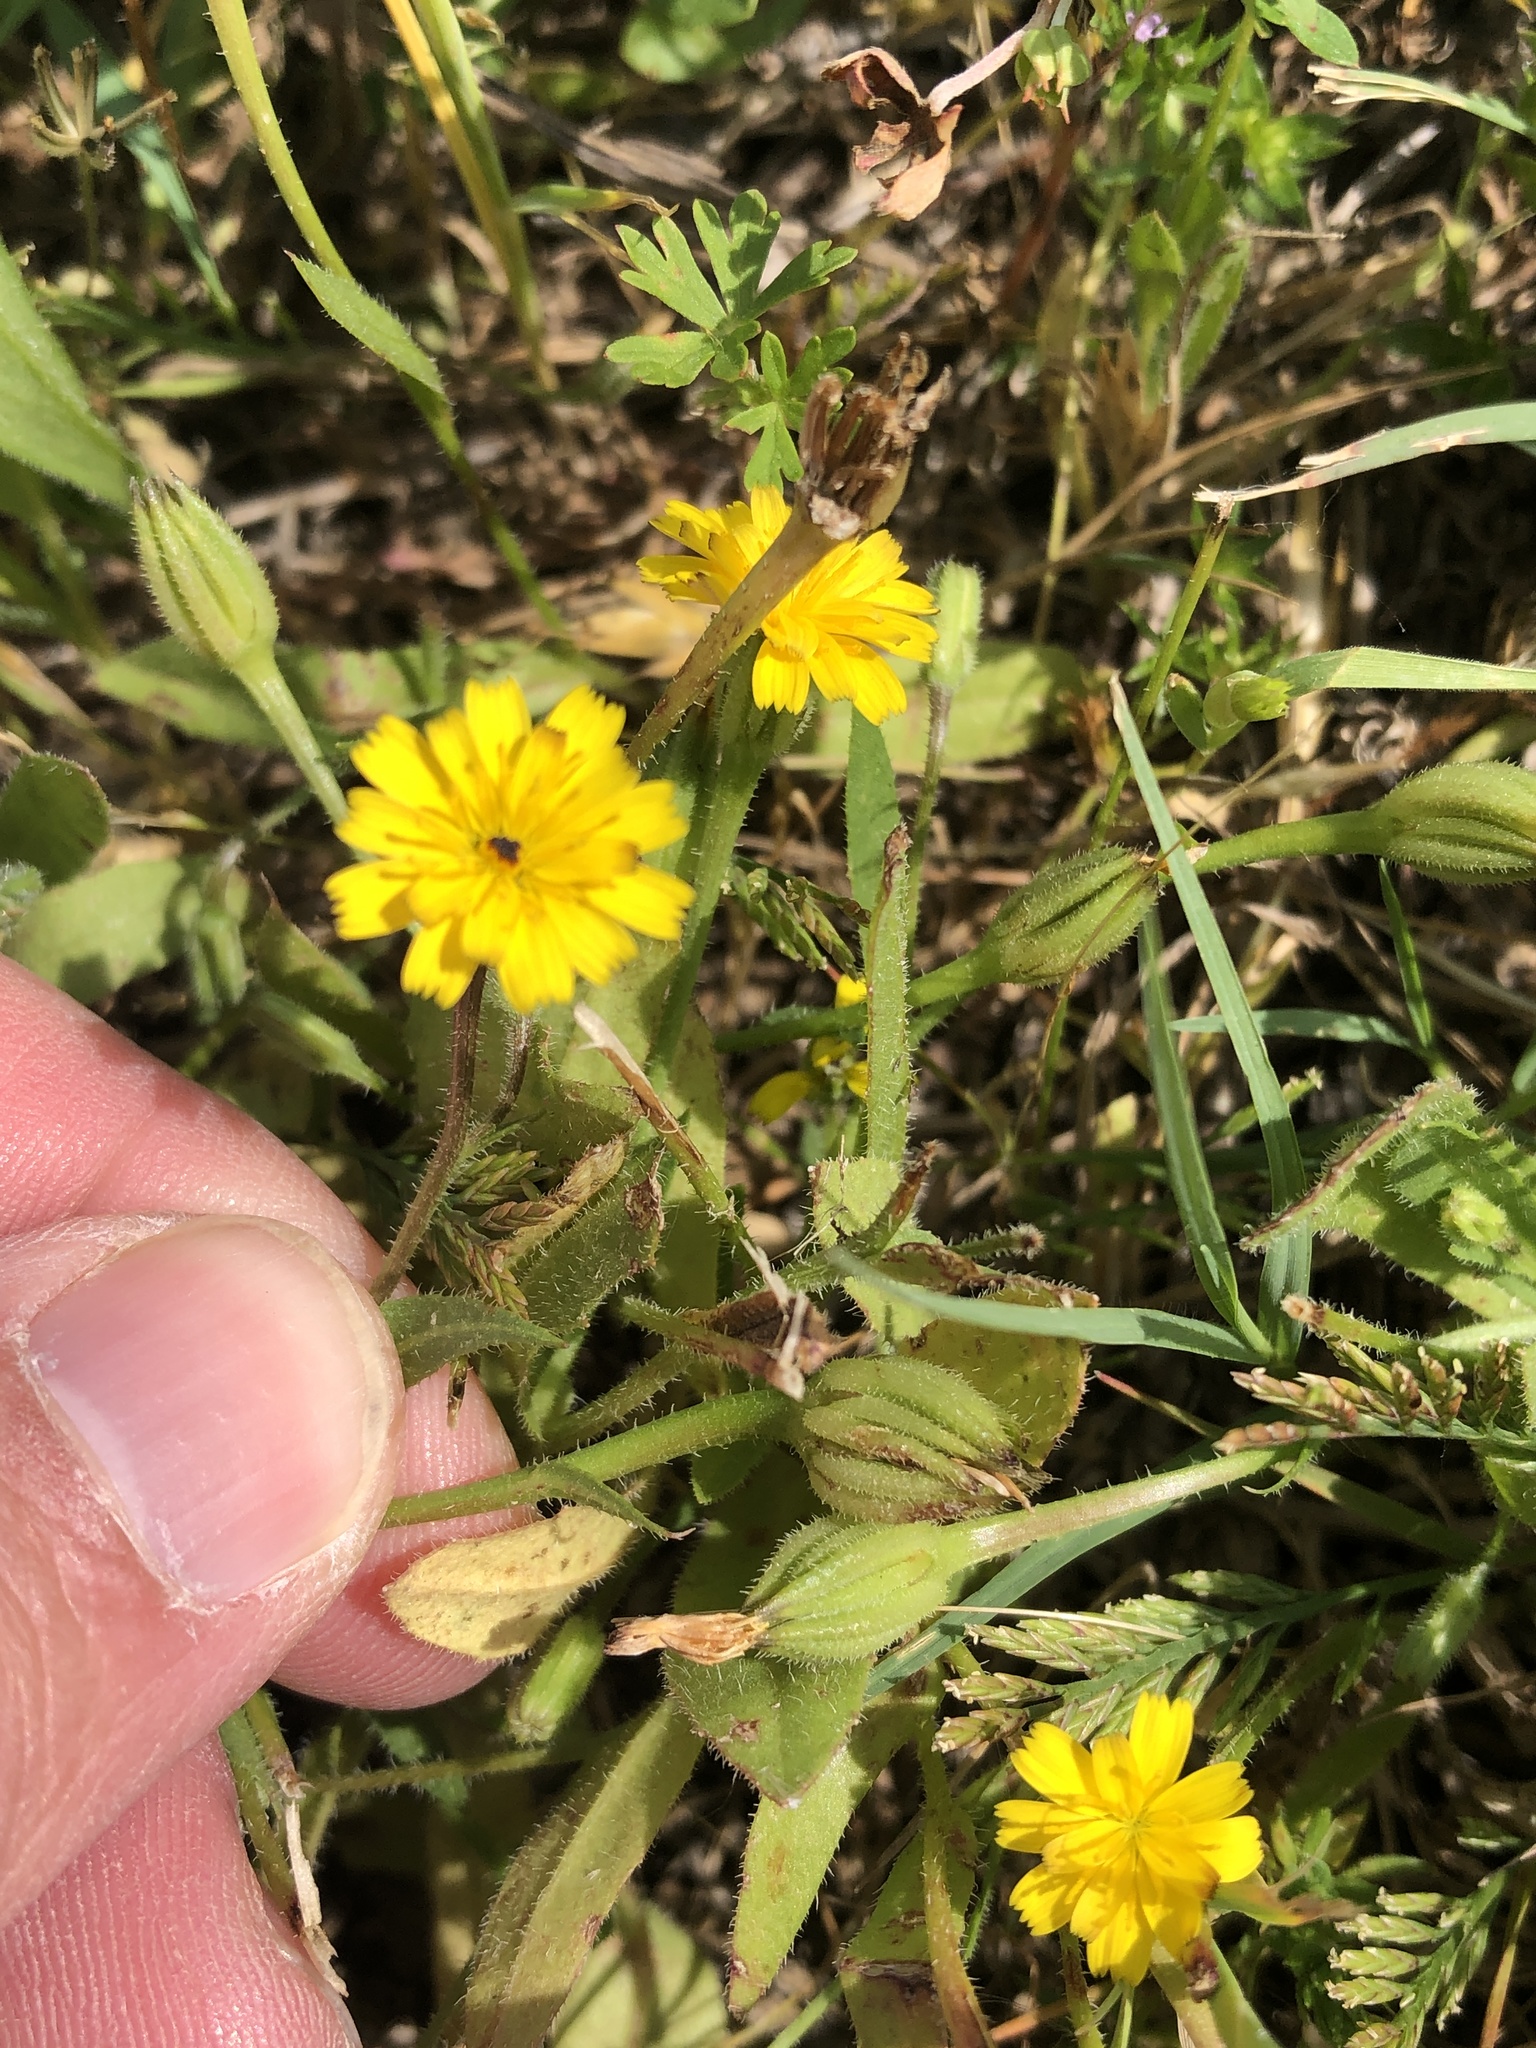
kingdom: Plantae
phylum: Tracheophyta
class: Magnoliopsida
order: Asterales
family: Asteraceae
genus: Hedypnois
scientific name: Hedypnois rhagadioloides
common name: Cretan weed
